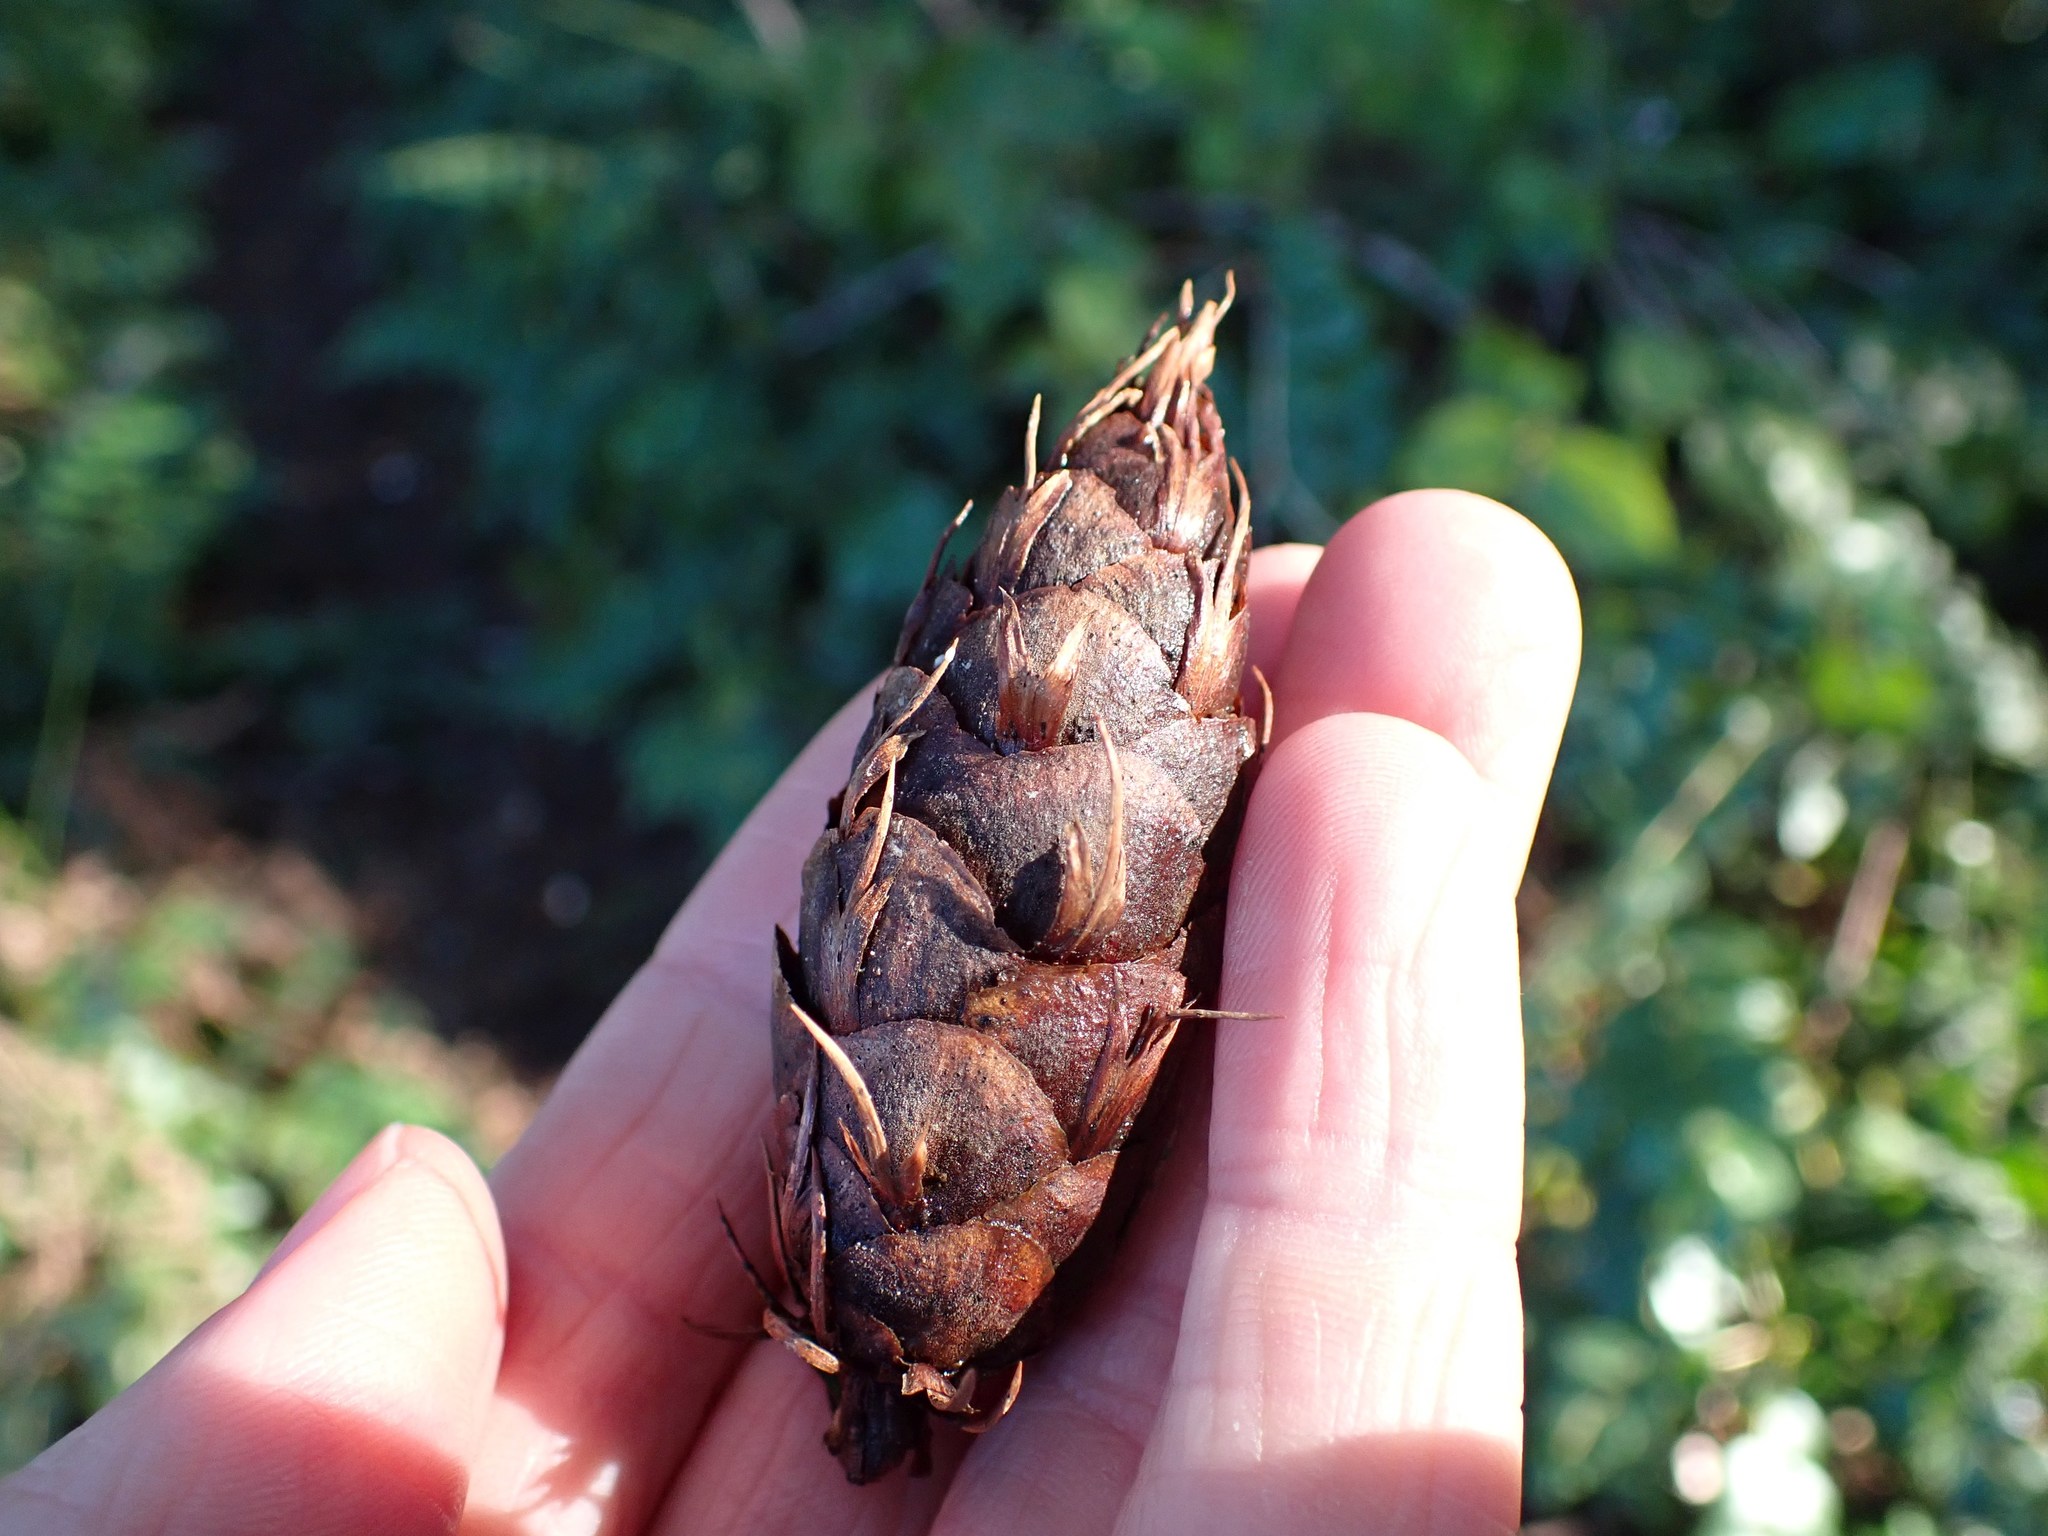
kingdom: Plantae
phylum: Tracheophyta
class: Pinopsida
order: Pinales
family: Pinaceae
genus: Pseudotsuga
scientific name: Pseudotsuga menziesii
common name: Douglas fir
